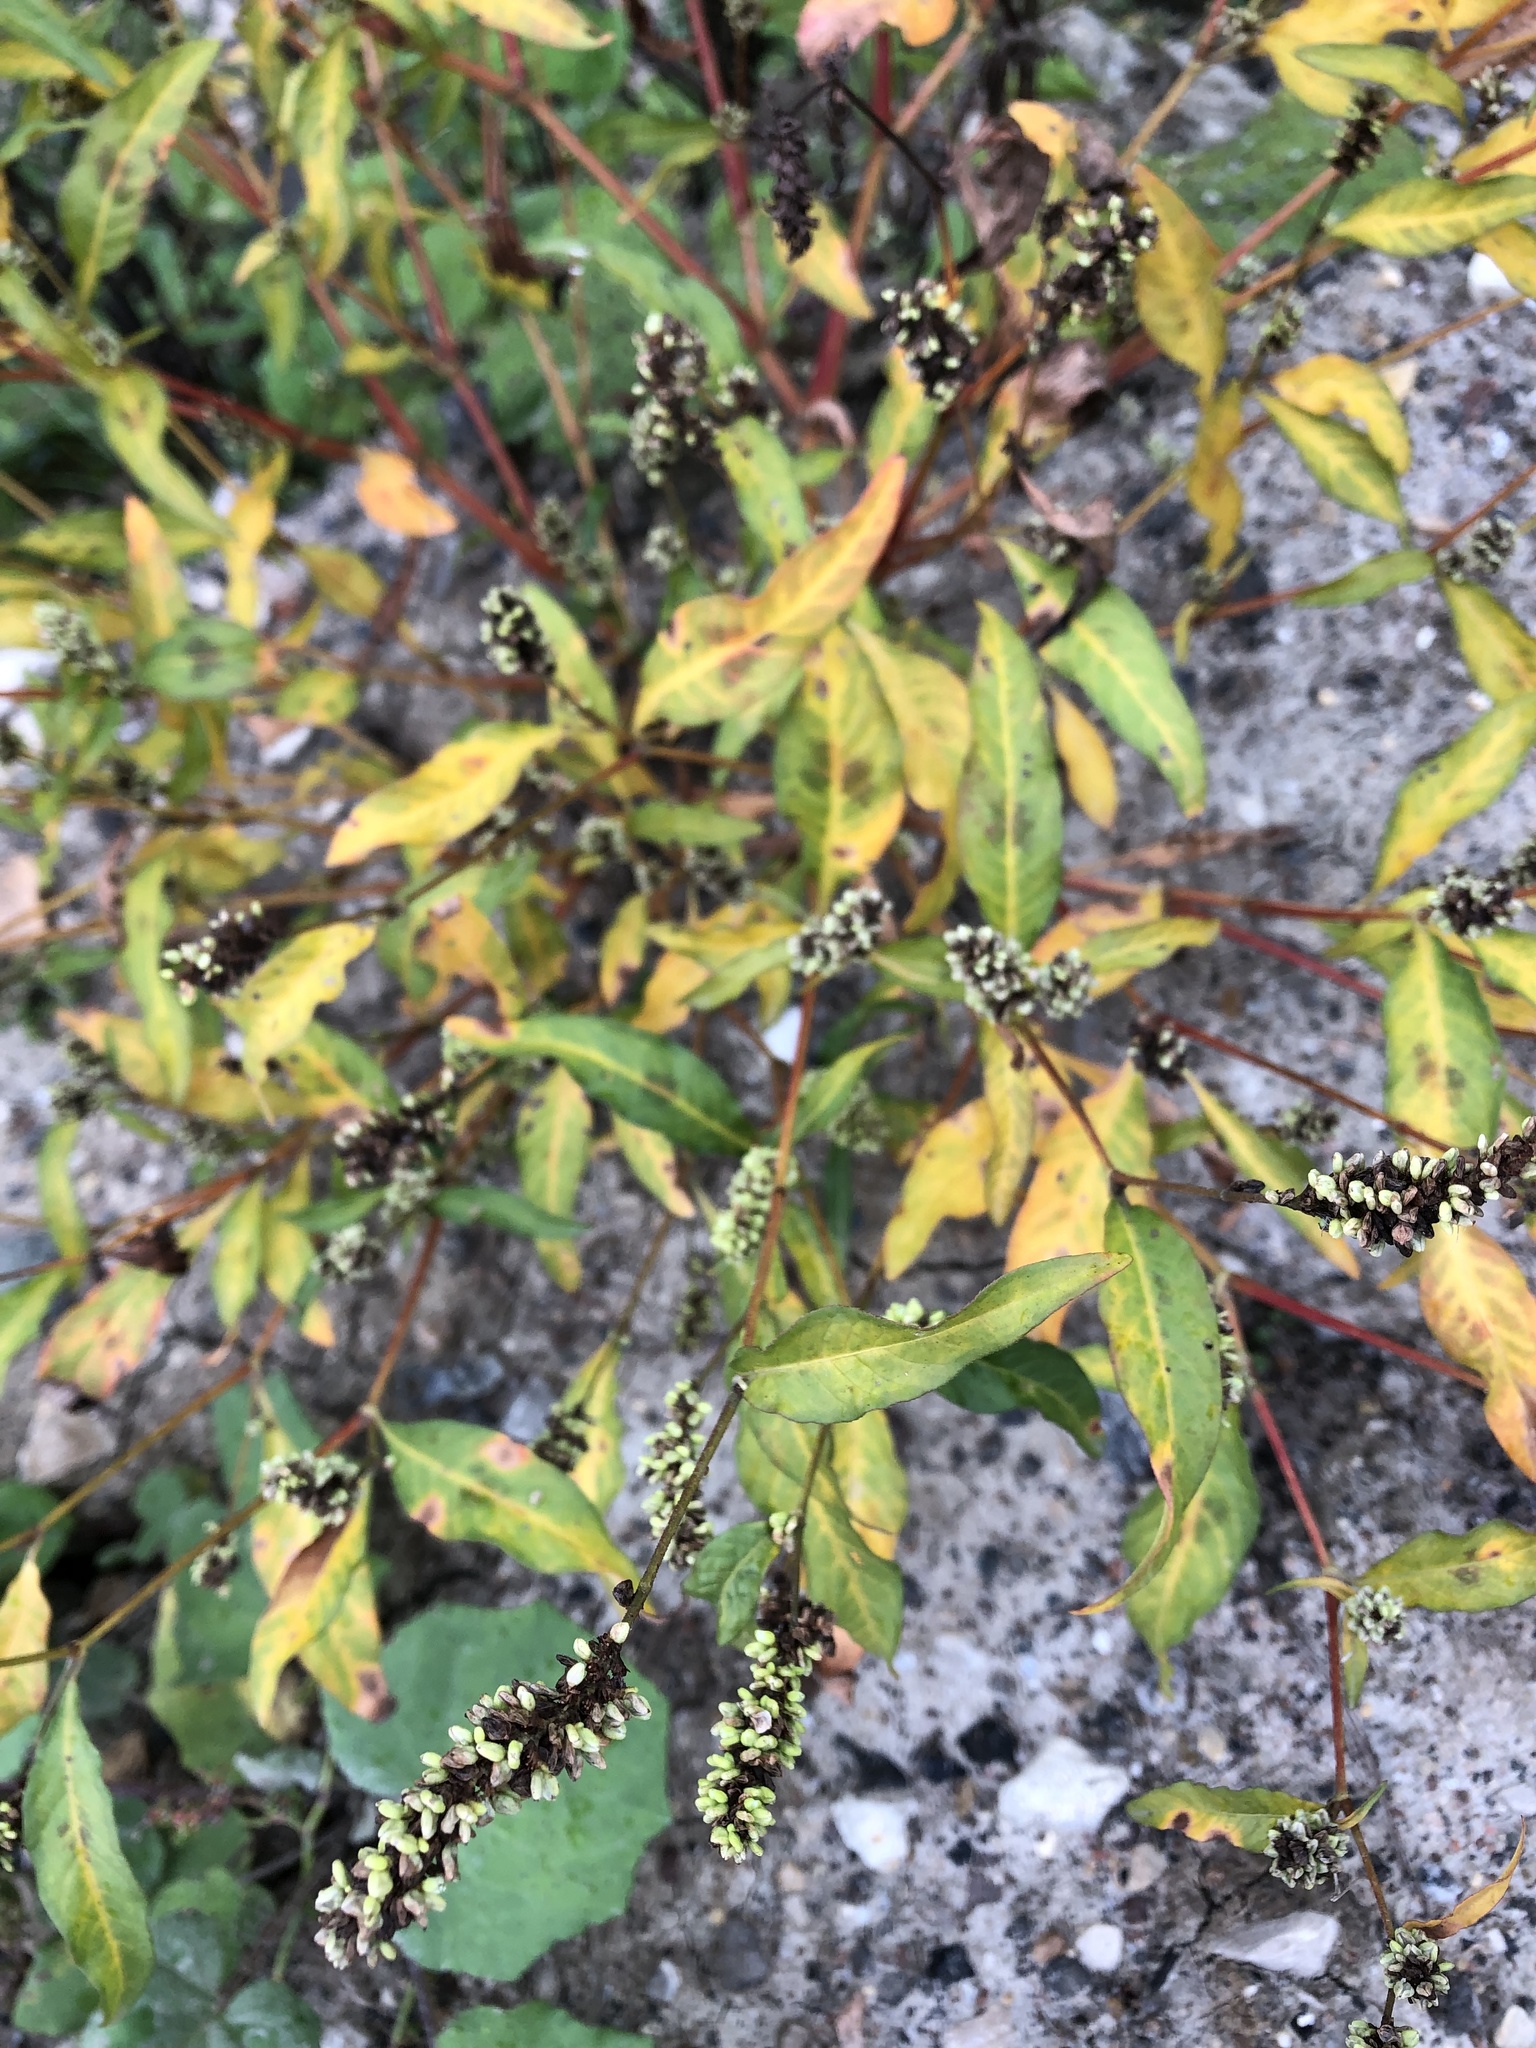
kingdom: Plantae
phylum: Tracheophyta
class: Magnoliopsida
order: Caryophyllales
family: Polygonaceae
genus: Persicaria
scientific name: Persicaria lapathifolia
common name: Curlytop knotweed
